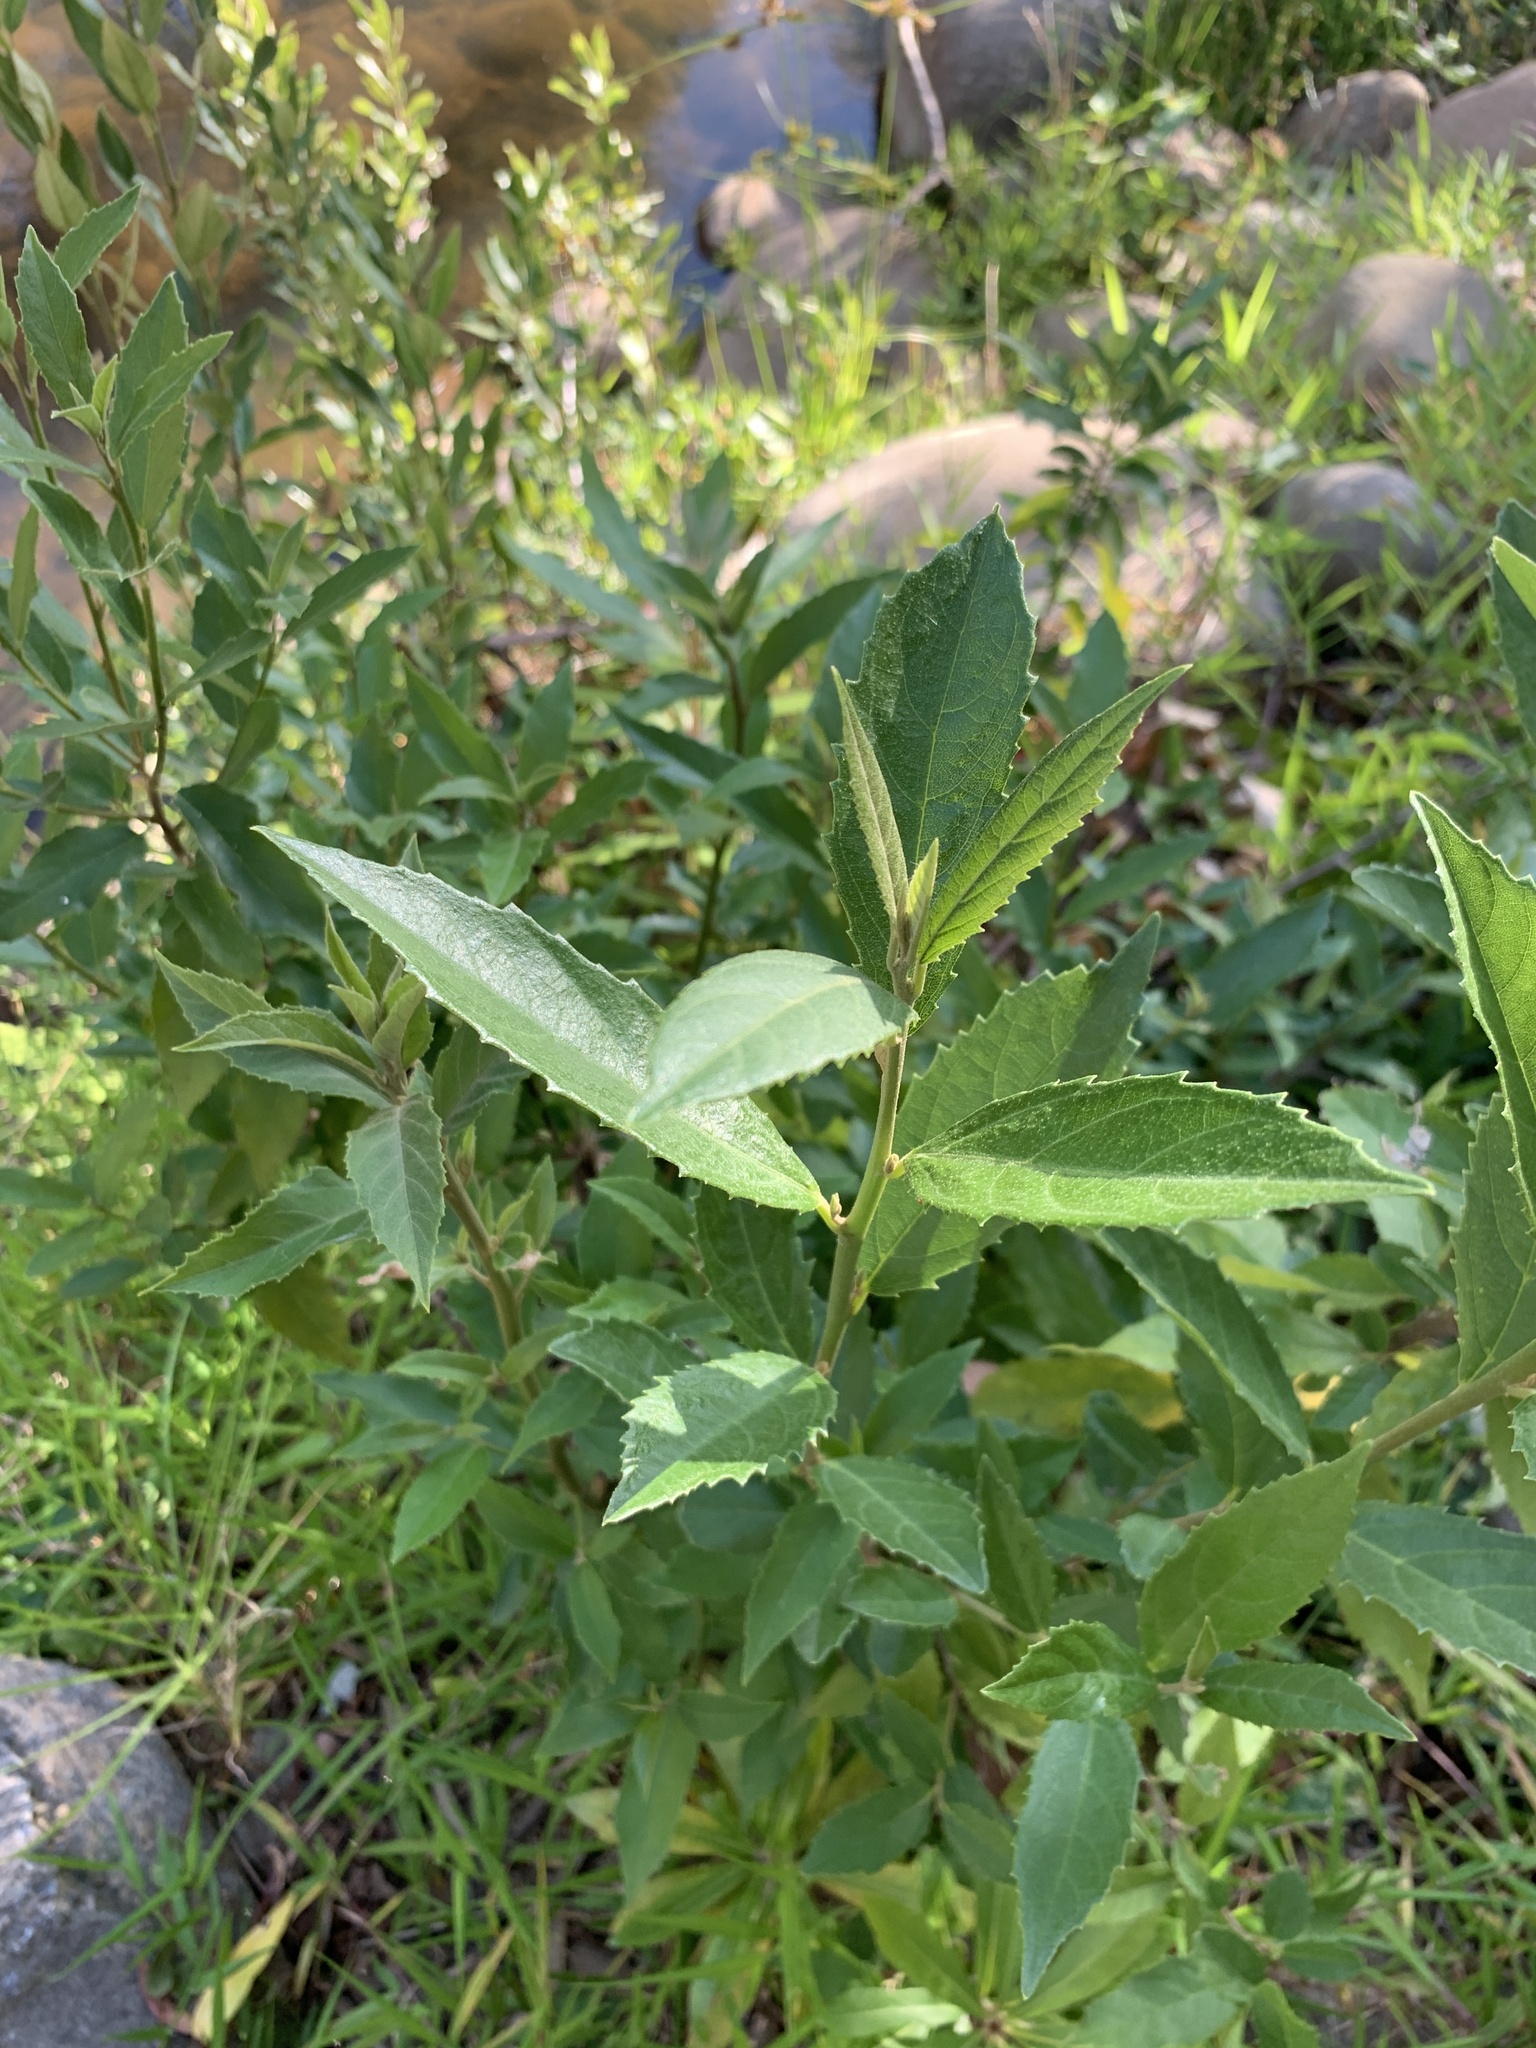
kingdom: Plantae
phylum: Tracheophyta
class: Magnoliopsida
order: Malpighiales
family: Achariaceae
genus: Kiggelaria
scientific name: Kiggelaria africana
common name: Wild peach
